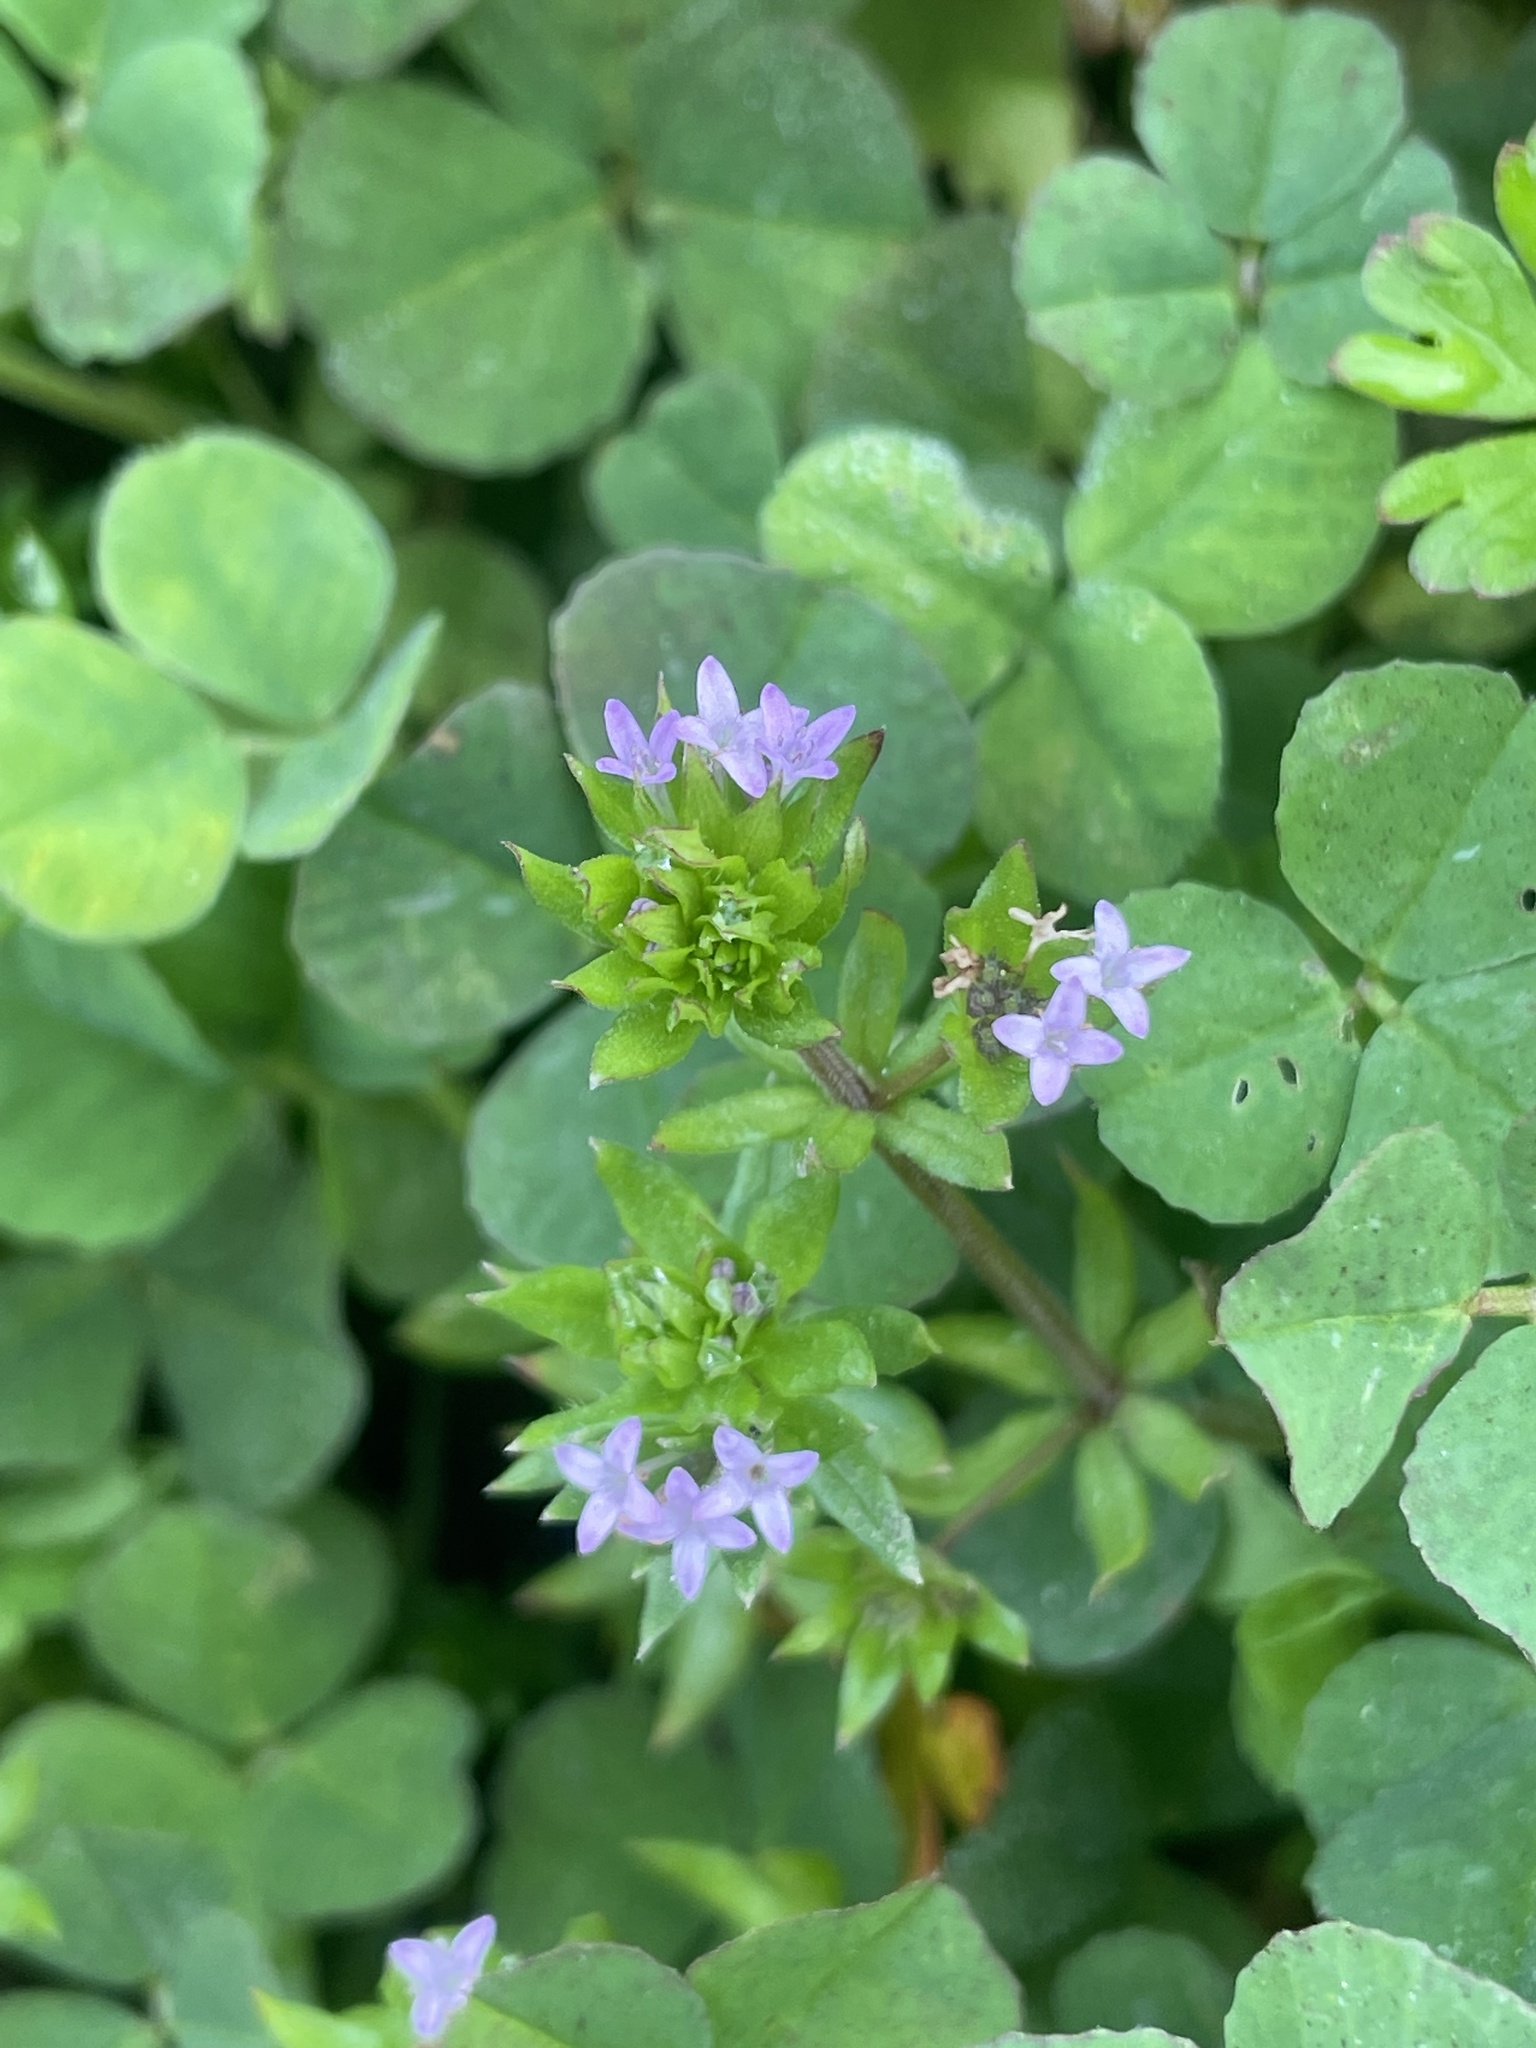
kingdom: Plantae
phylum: Tracheophyta
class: Magnoliopsida
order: Gentianales
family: Rubiaceae
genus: Sherardia
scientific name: Sherardia arvensis
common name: Field madder
